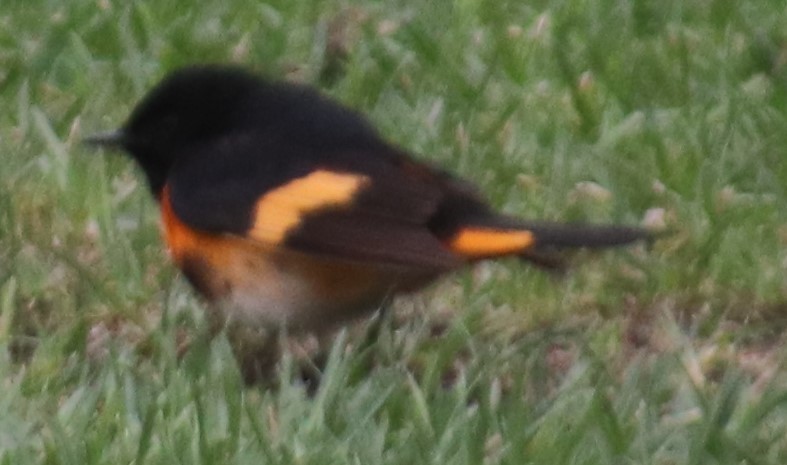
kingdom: Animalia
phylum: Chordata
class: Aves
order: Passeriformes
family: Parulidae
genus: Setophaga
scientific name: Setophaga ruticilla
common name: American redstart
